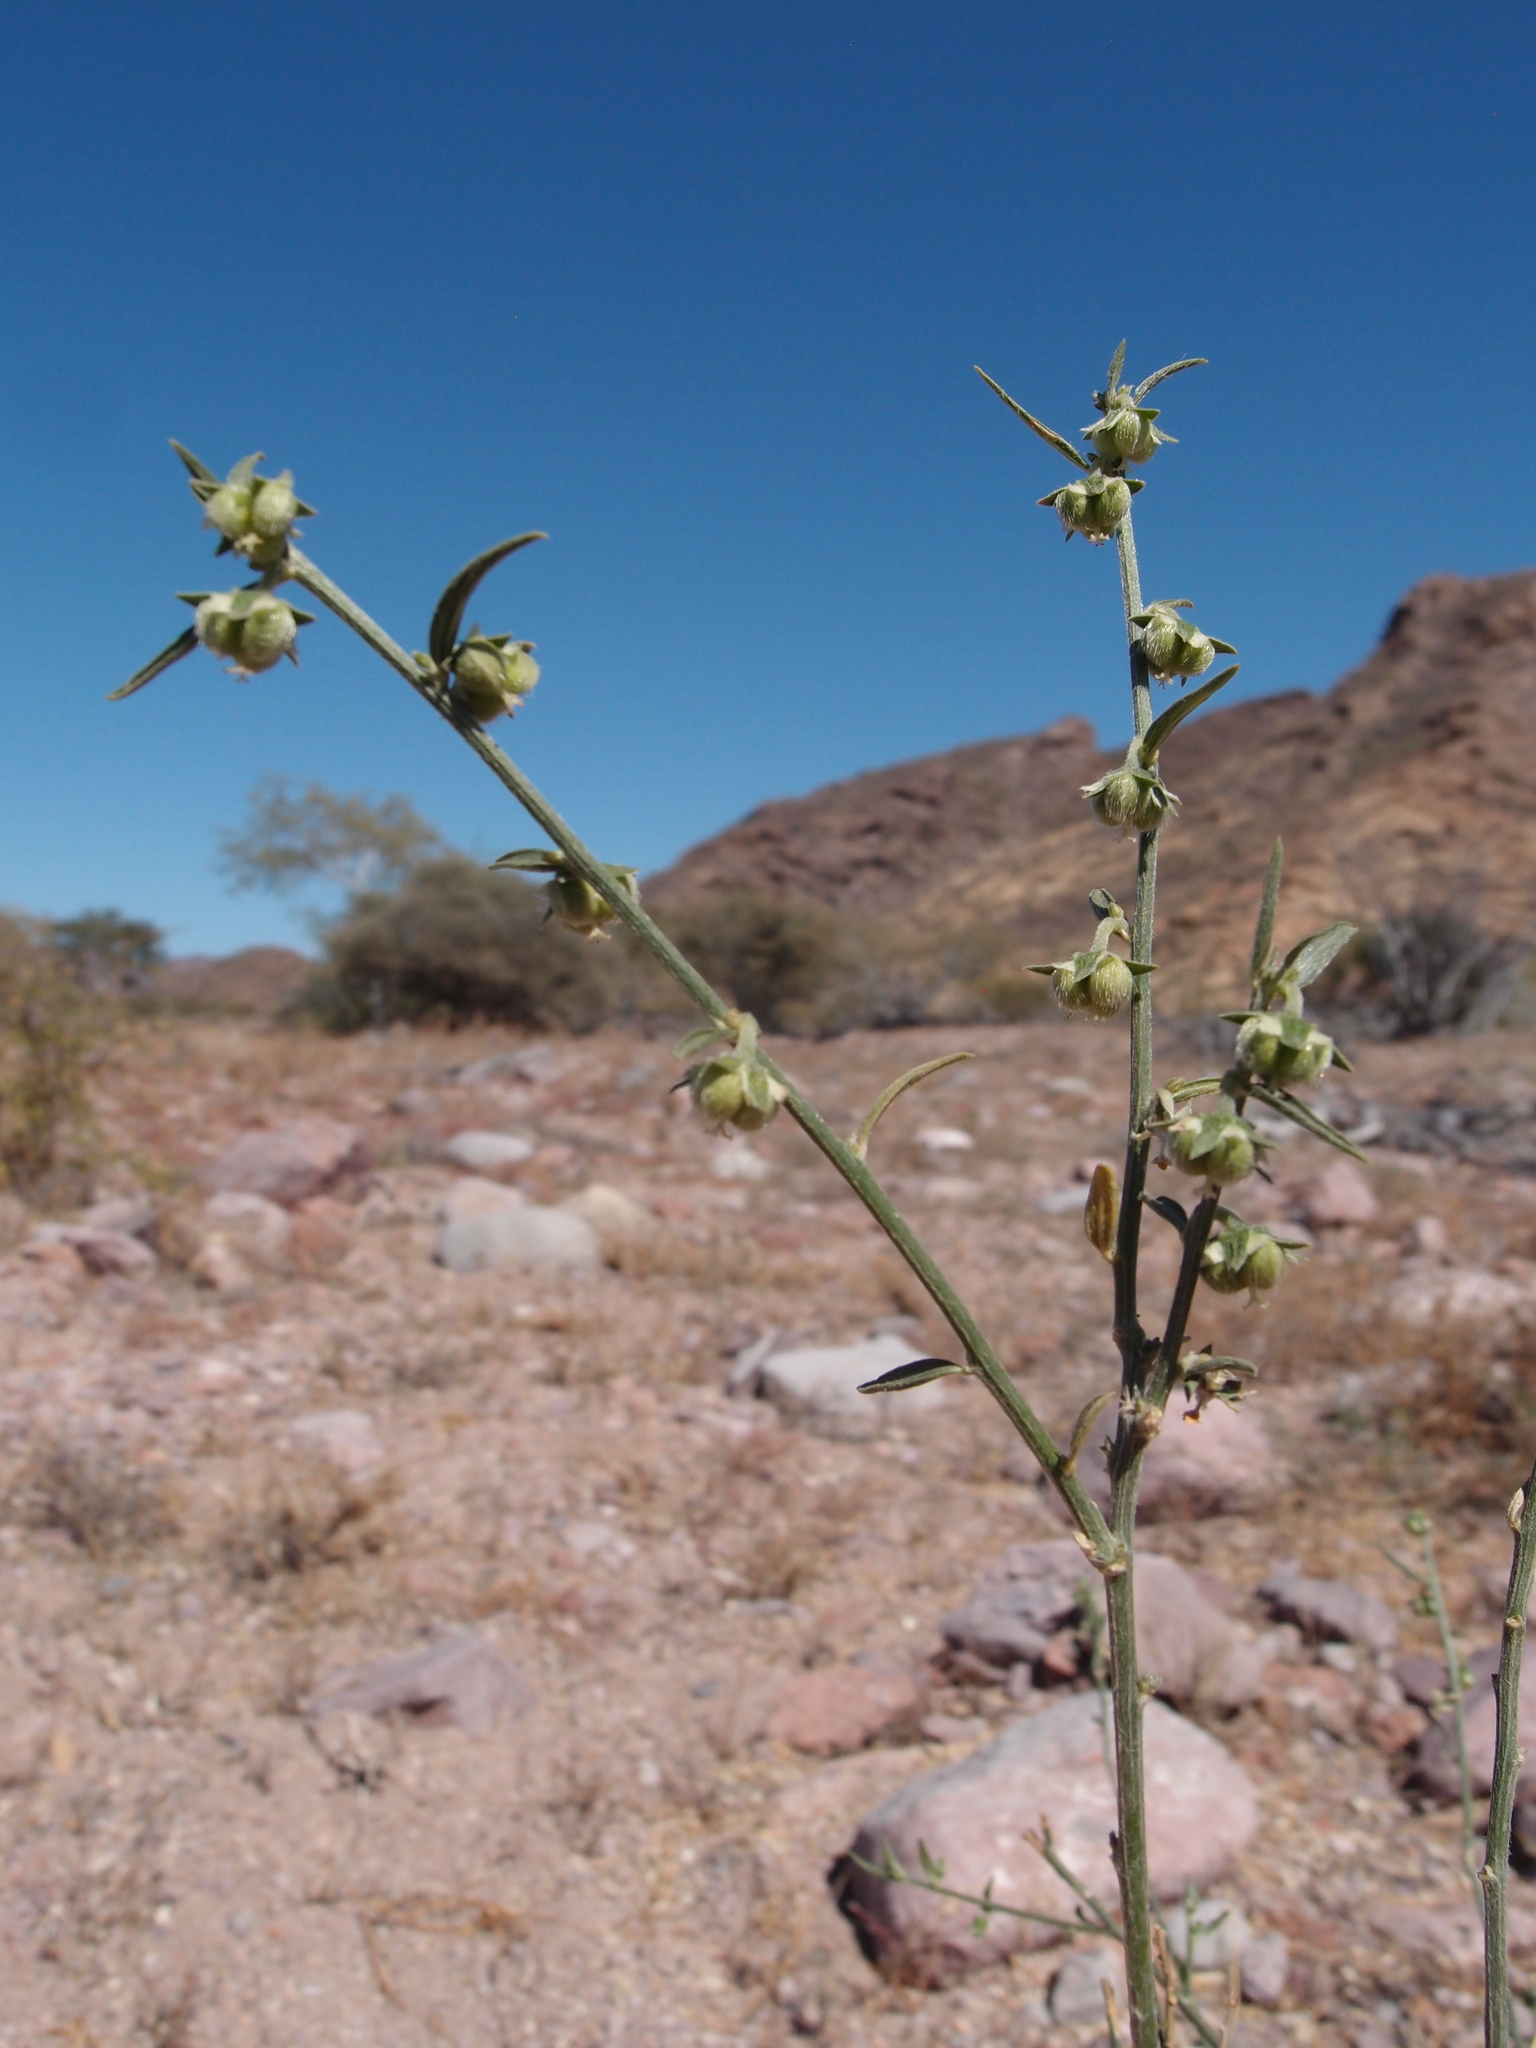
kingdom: Plantae
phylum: Tracheophyta
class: Magnoliopsida
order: Malpighiales
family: Euphorbiaceae
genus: Ditaxis
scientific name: Ditaxis lanceolata
